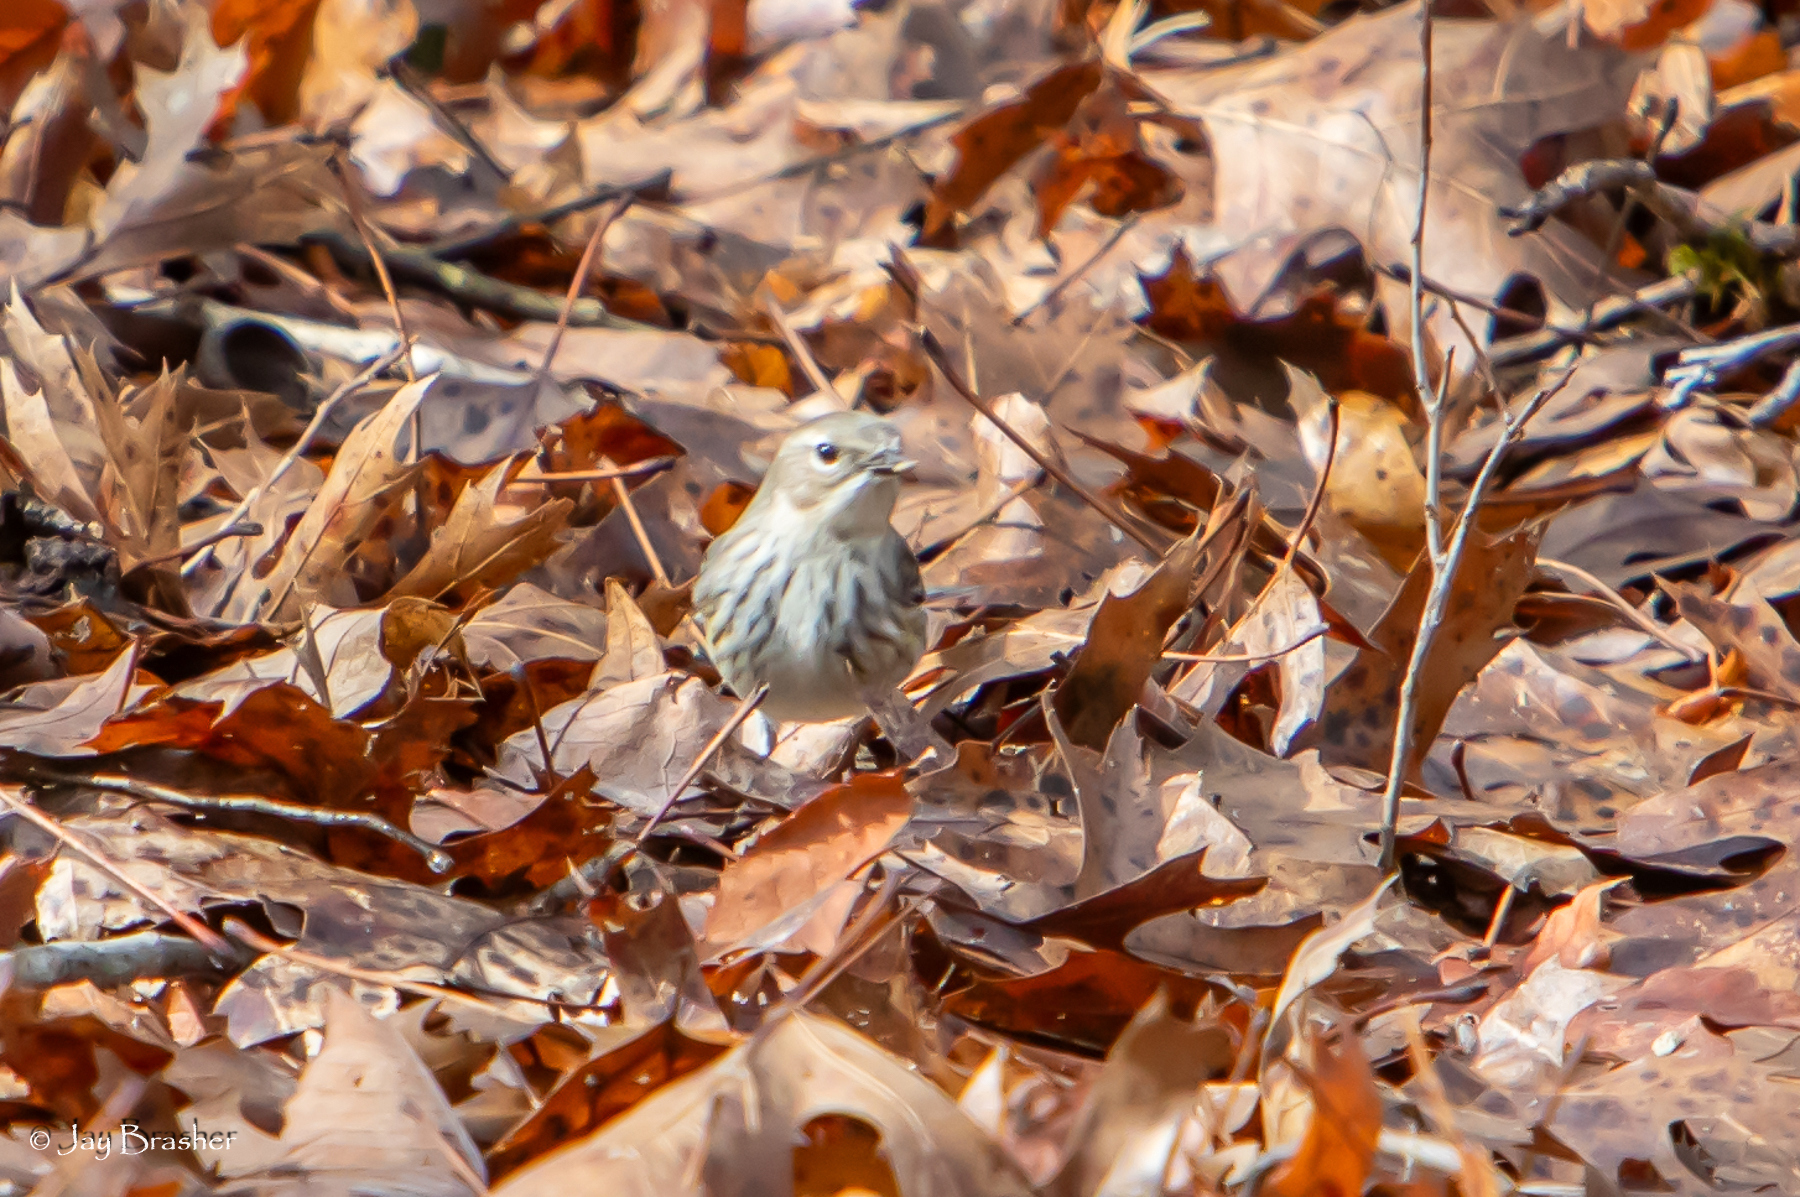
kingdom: Animalia
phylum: Chordata
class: Aves
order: Passeriformes
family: Parulidae
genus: Setophaga
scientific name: Setophaga coronata
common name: Myrtle warbler
